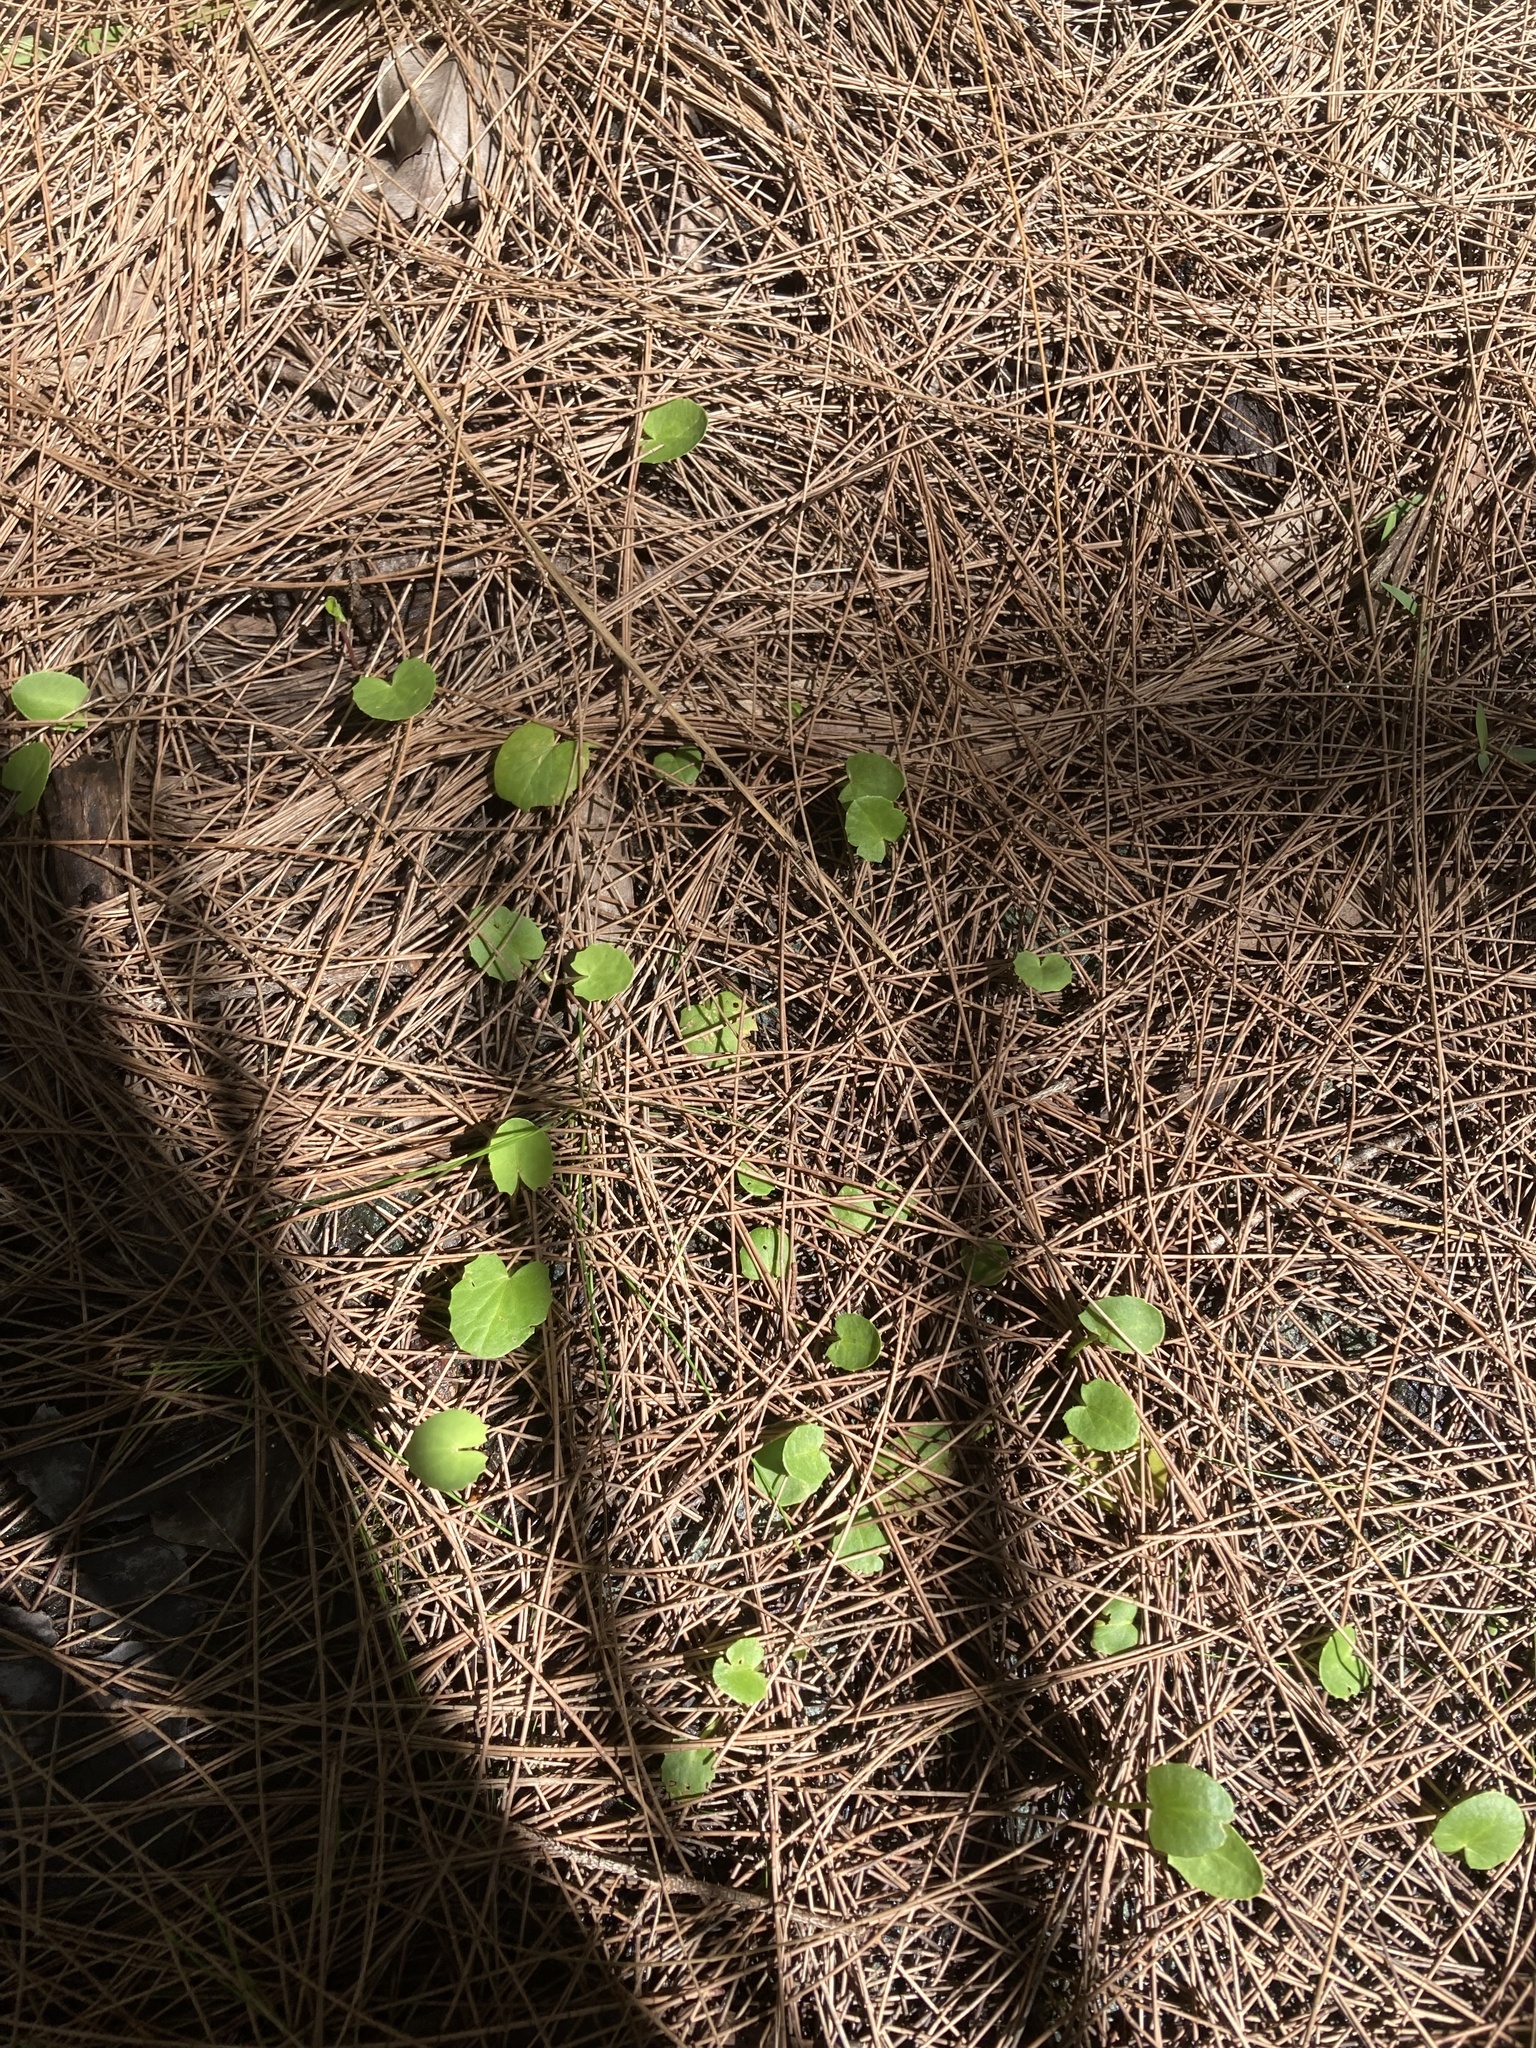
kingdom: Plantae
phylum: Tracheophyta
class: Magnoliopsida
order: Apiales
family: Apiaceae
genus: Centella
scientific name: Centella erecta
